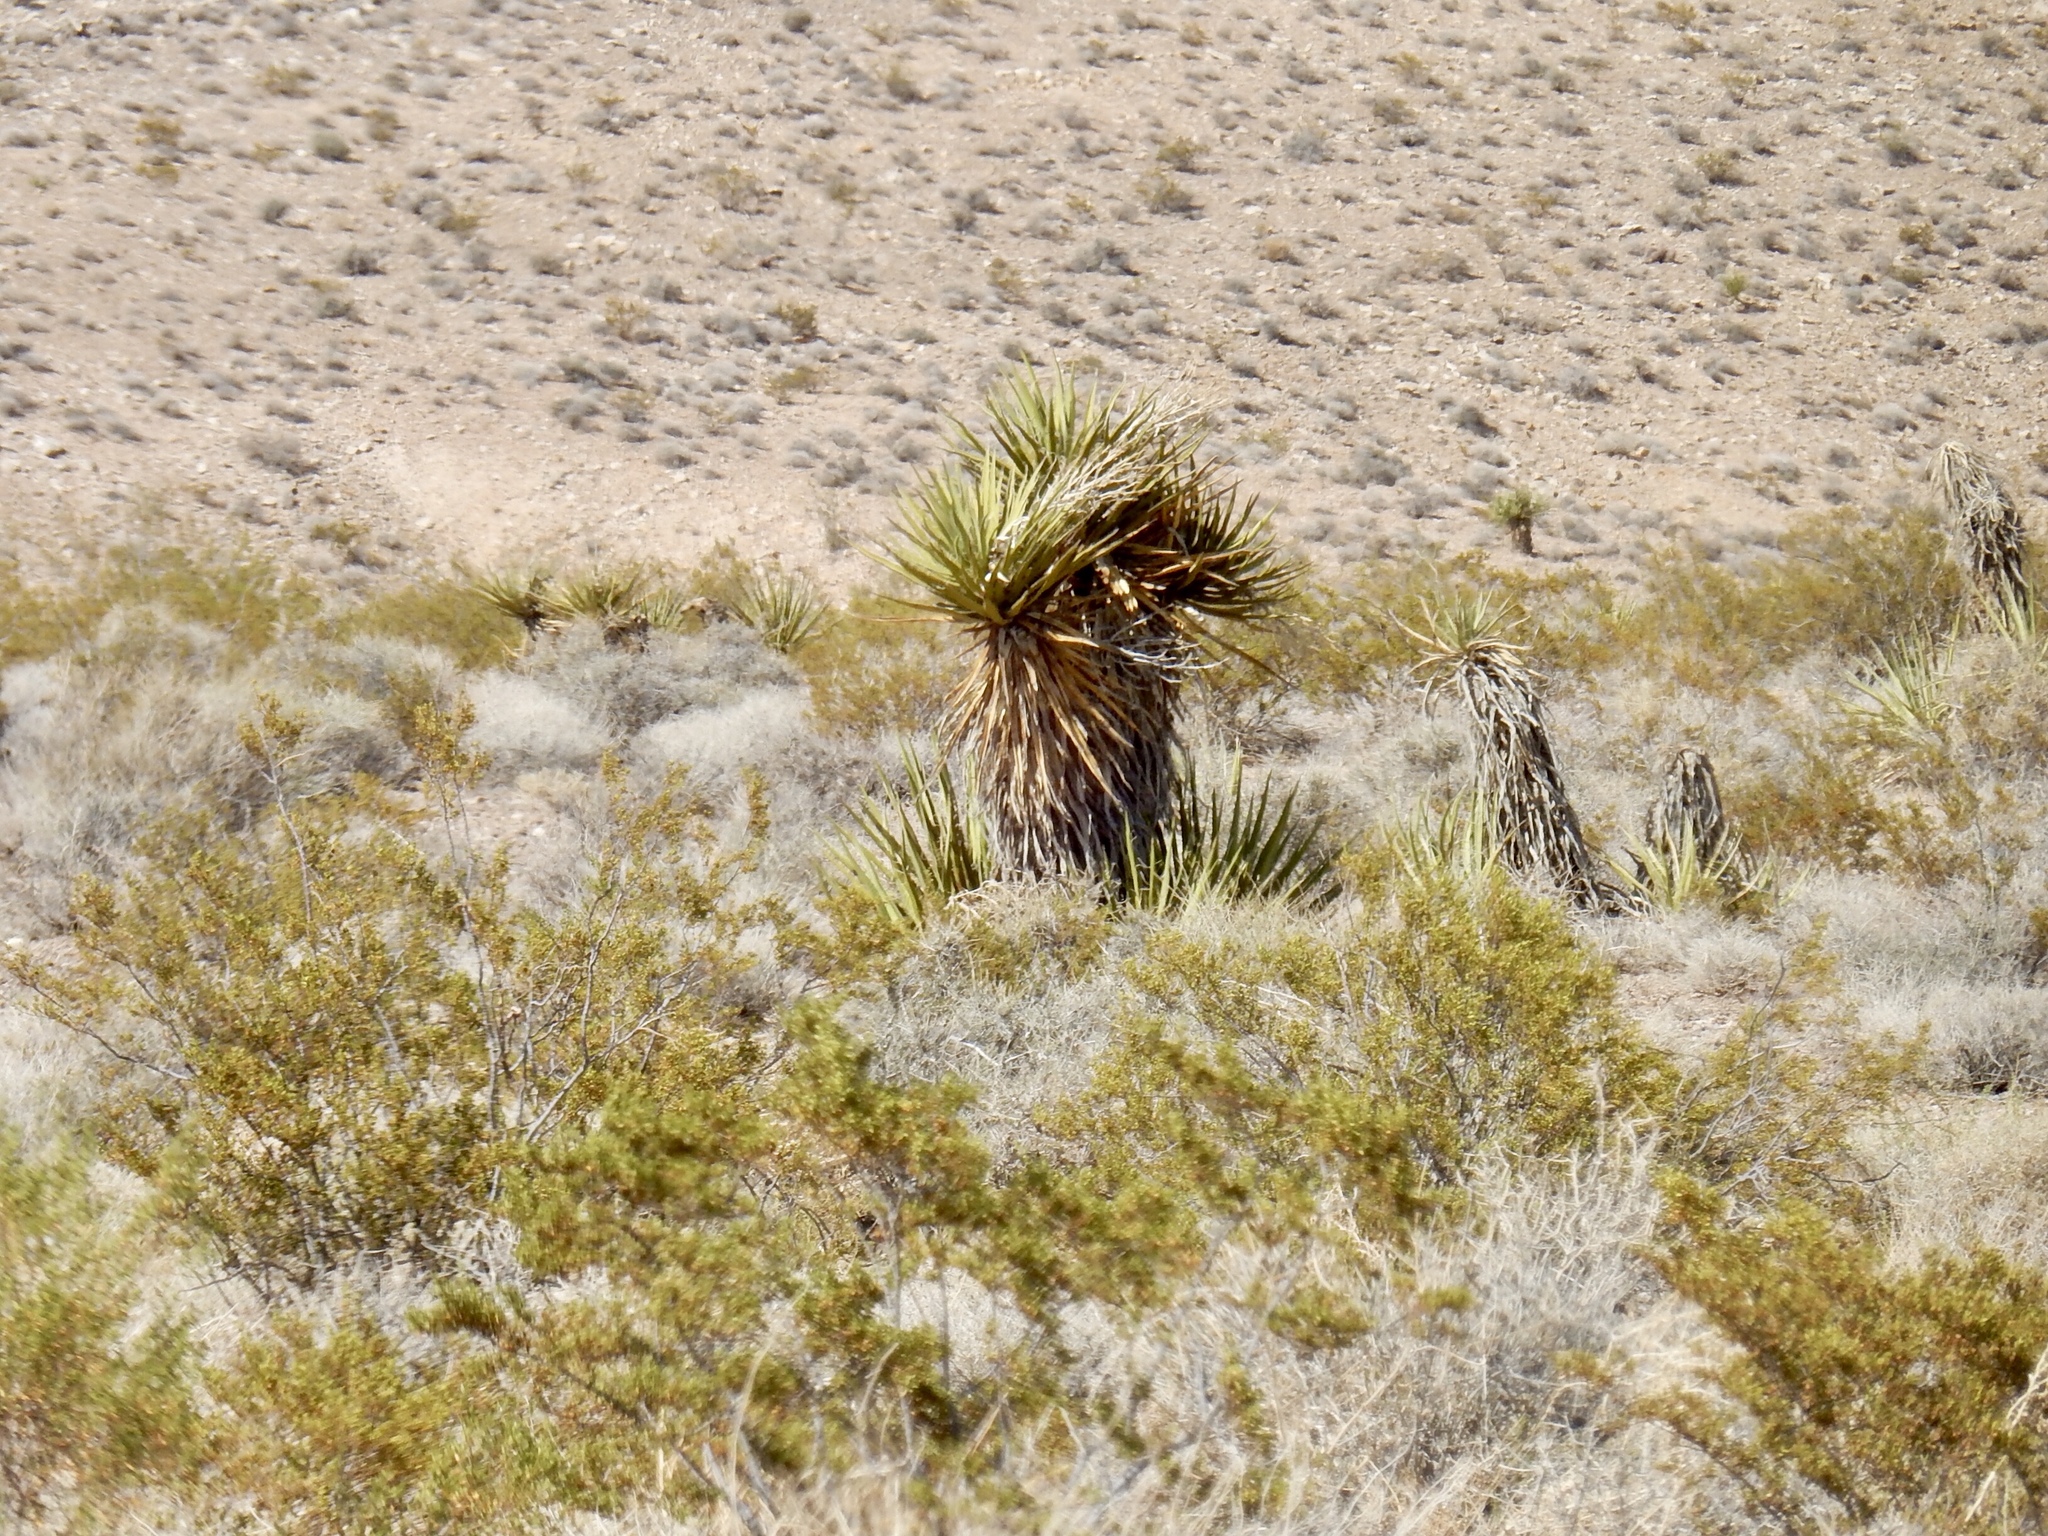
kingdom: Plantae
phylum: Tracheophyta
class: Liliopsida
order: Asparagales
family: Asparagaceae
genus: Yucca
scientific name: Yucca schidigera
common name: Mojave yucca
